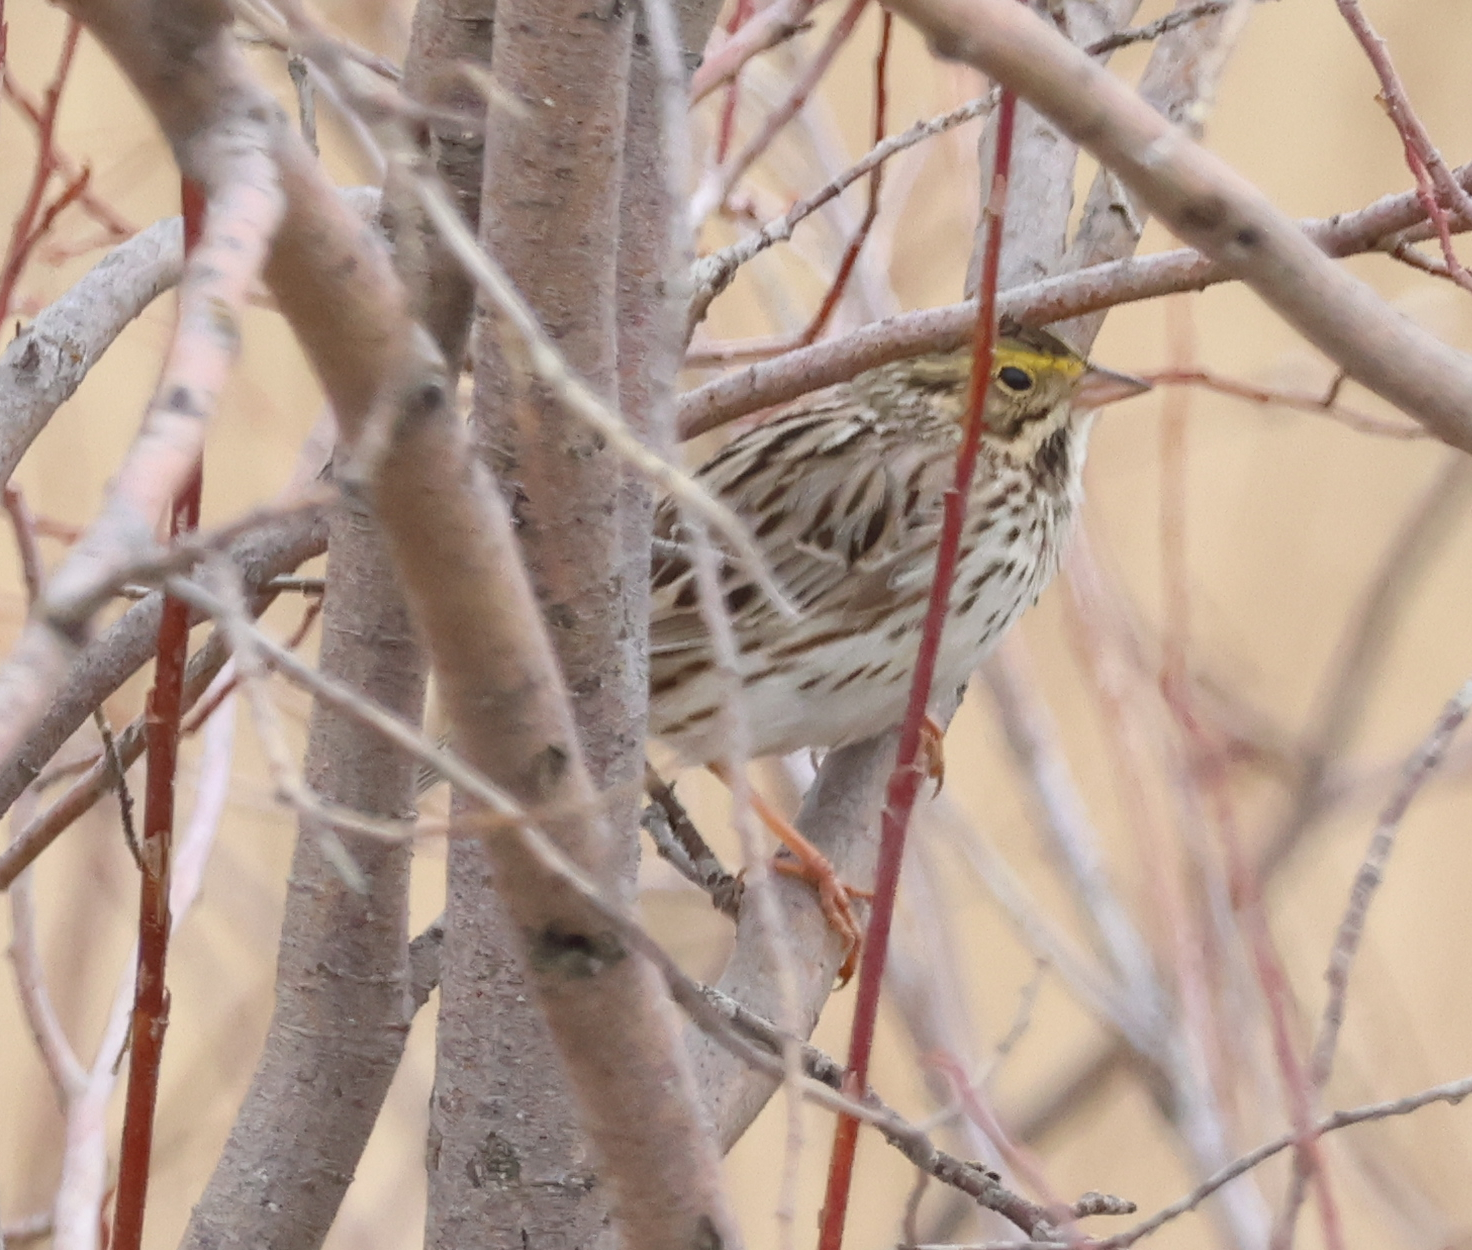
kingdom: Animalia
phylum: Chordata
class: Aves
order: Passeriformes
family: Passerellidae
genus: Passerculus
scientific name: Passerculus sandwichensis
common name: Savannah sparrow
